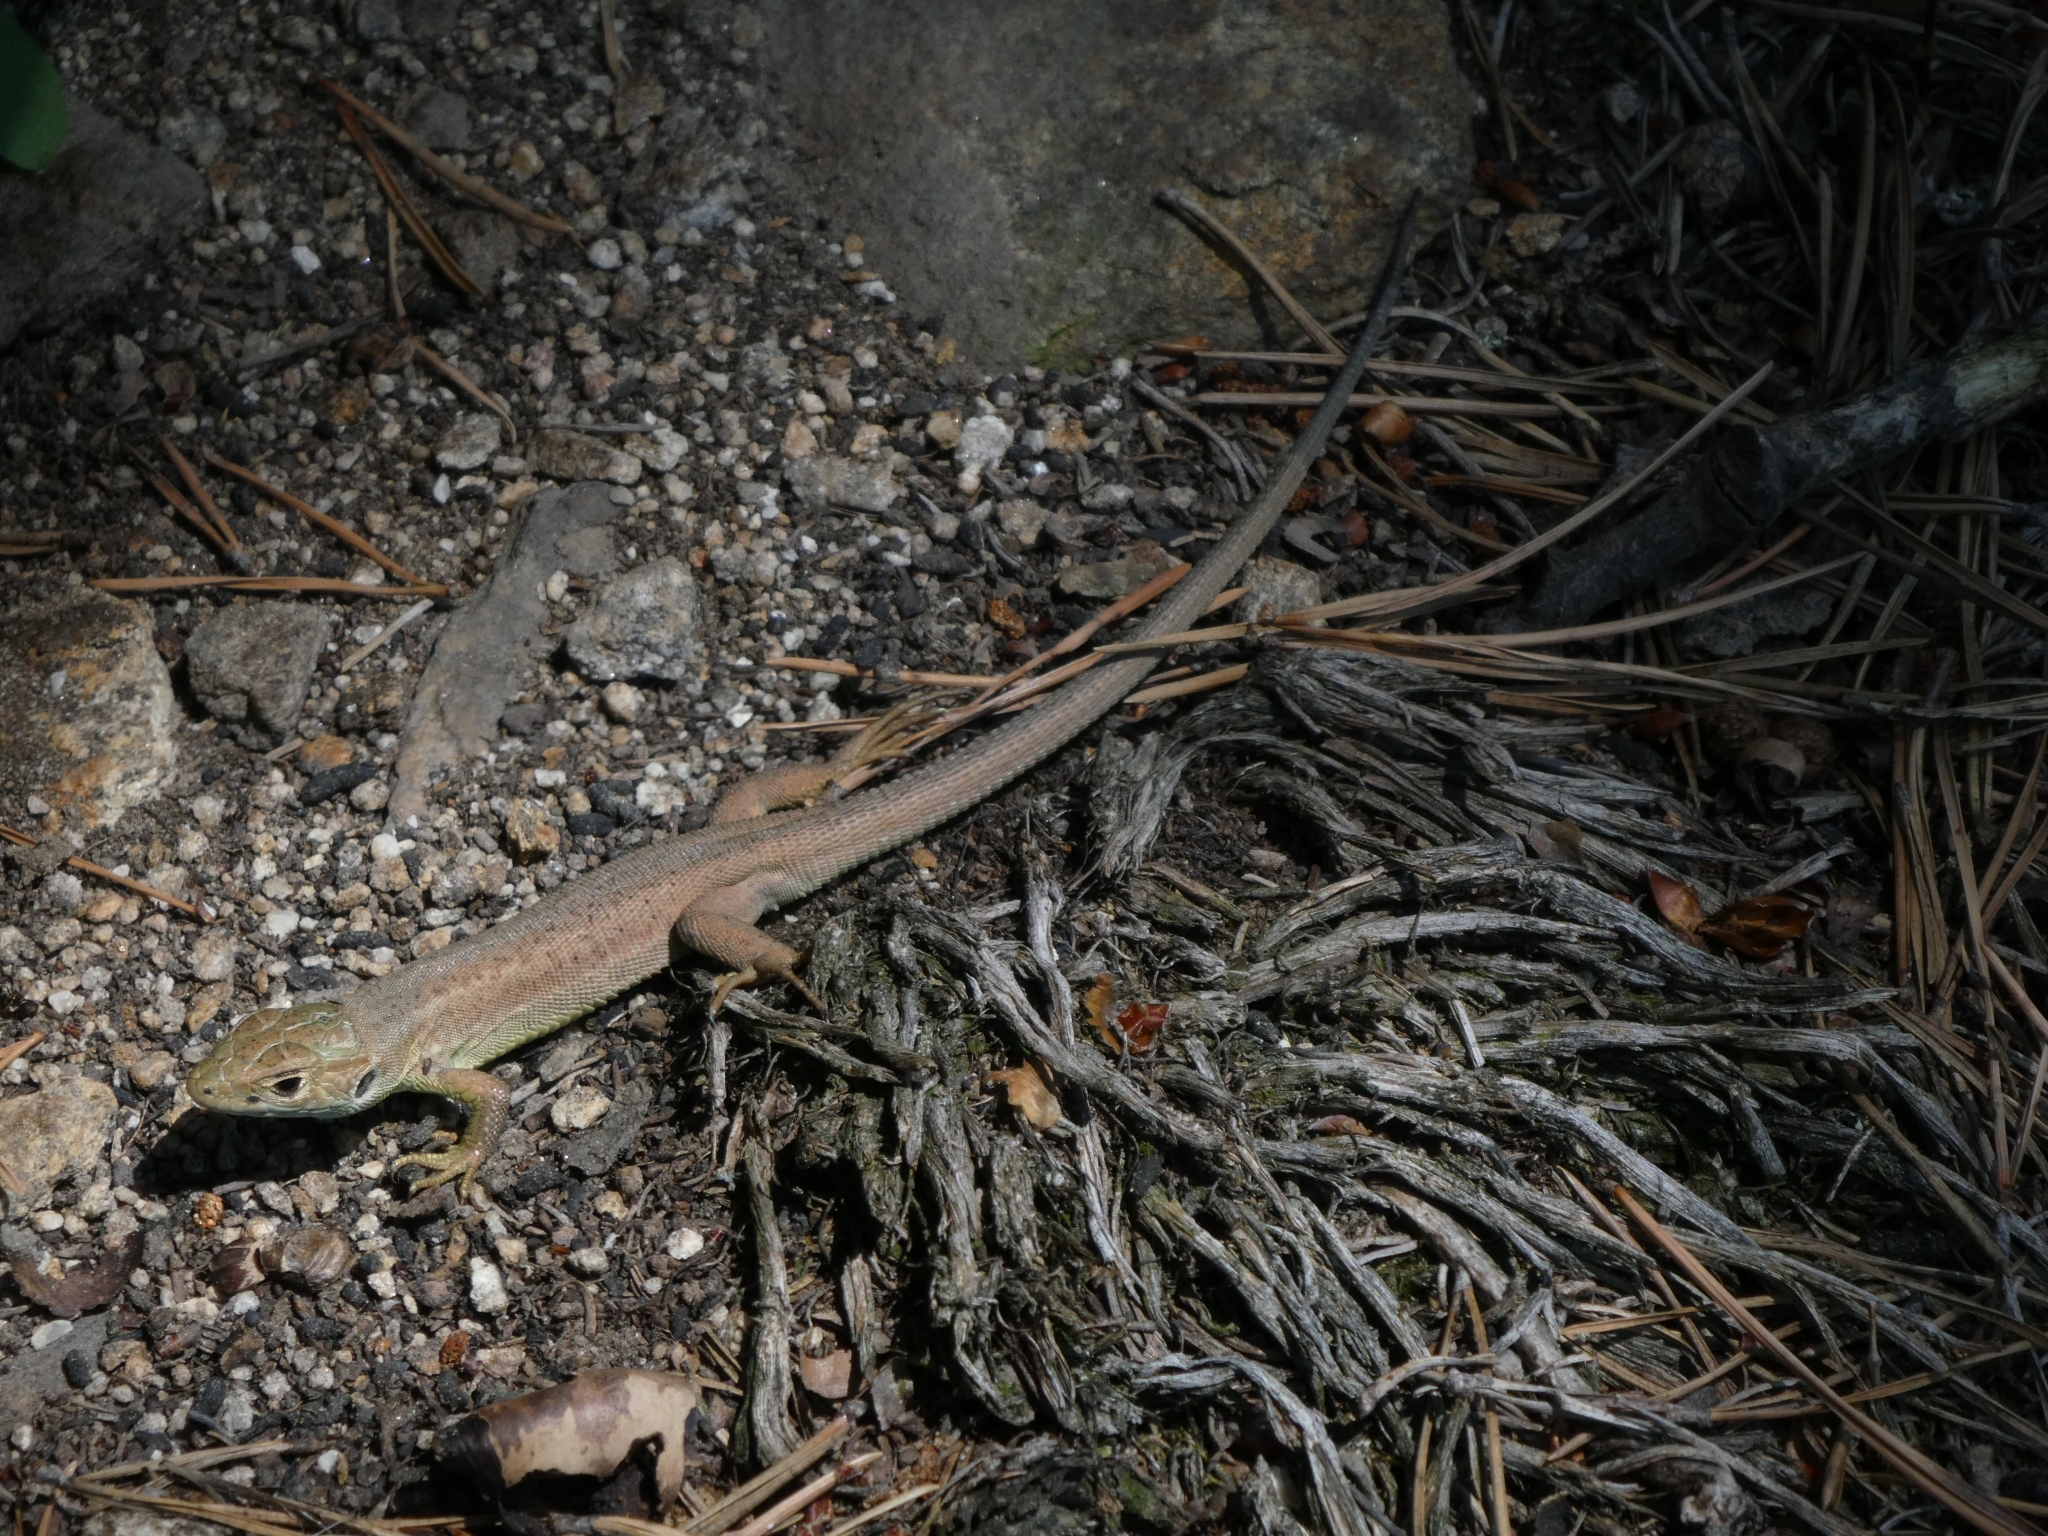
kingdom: Animalia
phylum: Chordata
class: Squamata
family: Lacertidae
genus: Lacerta
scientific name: Lacerta viridis
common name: European green lizard
